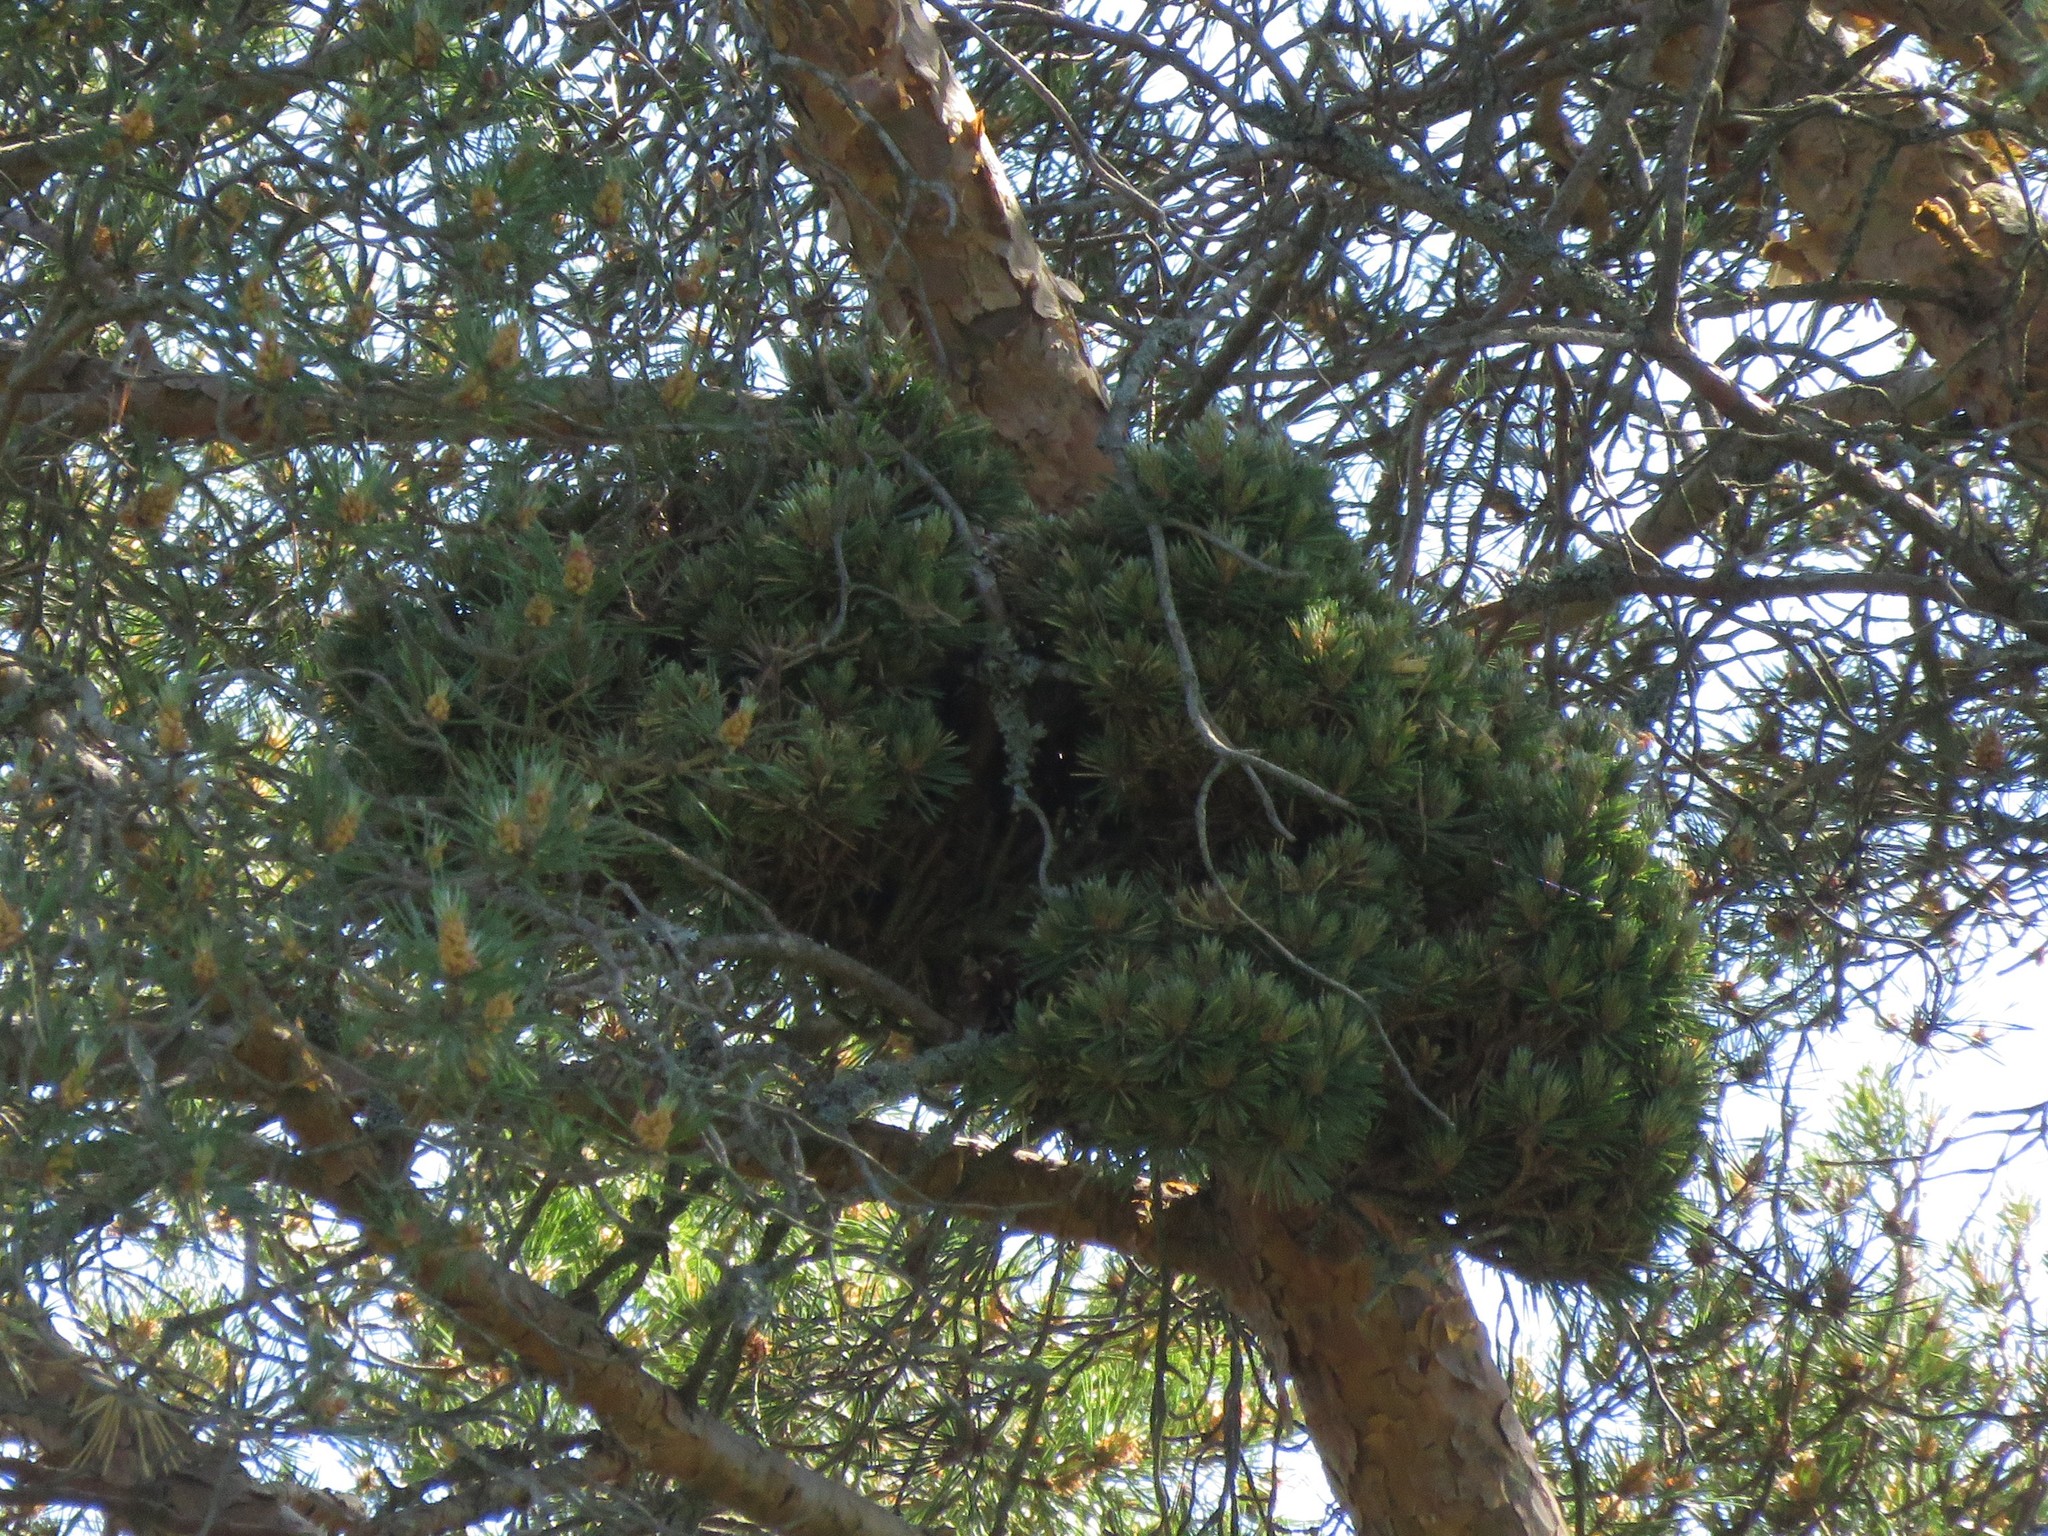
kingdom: Plantae
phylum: Tracheophyta
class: Pinopsida
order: Pinales
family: Pinaceae
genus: Pinus
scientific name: Pinus sylvestris
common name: Scots pine
